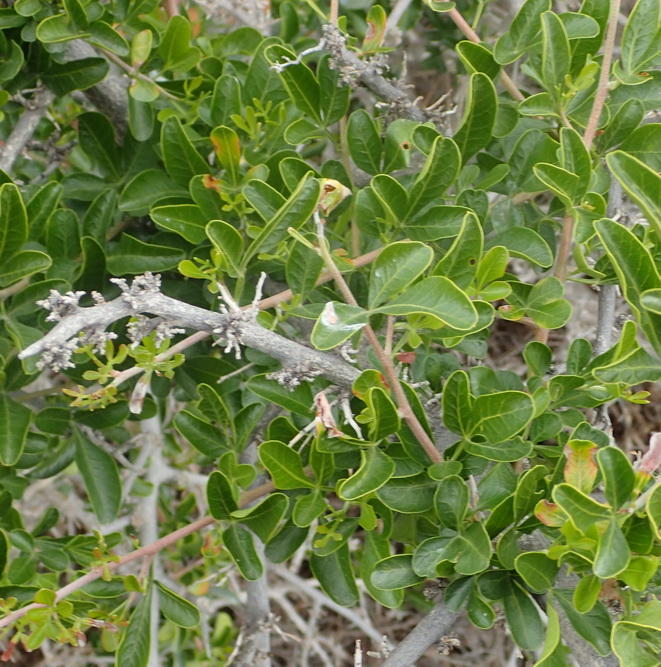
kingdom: Plantae
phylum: Tracheophyta
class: Magnoliopsida
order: Sapindales
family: Anacardiaceae
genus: Searsia
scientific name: Searsia longispina
